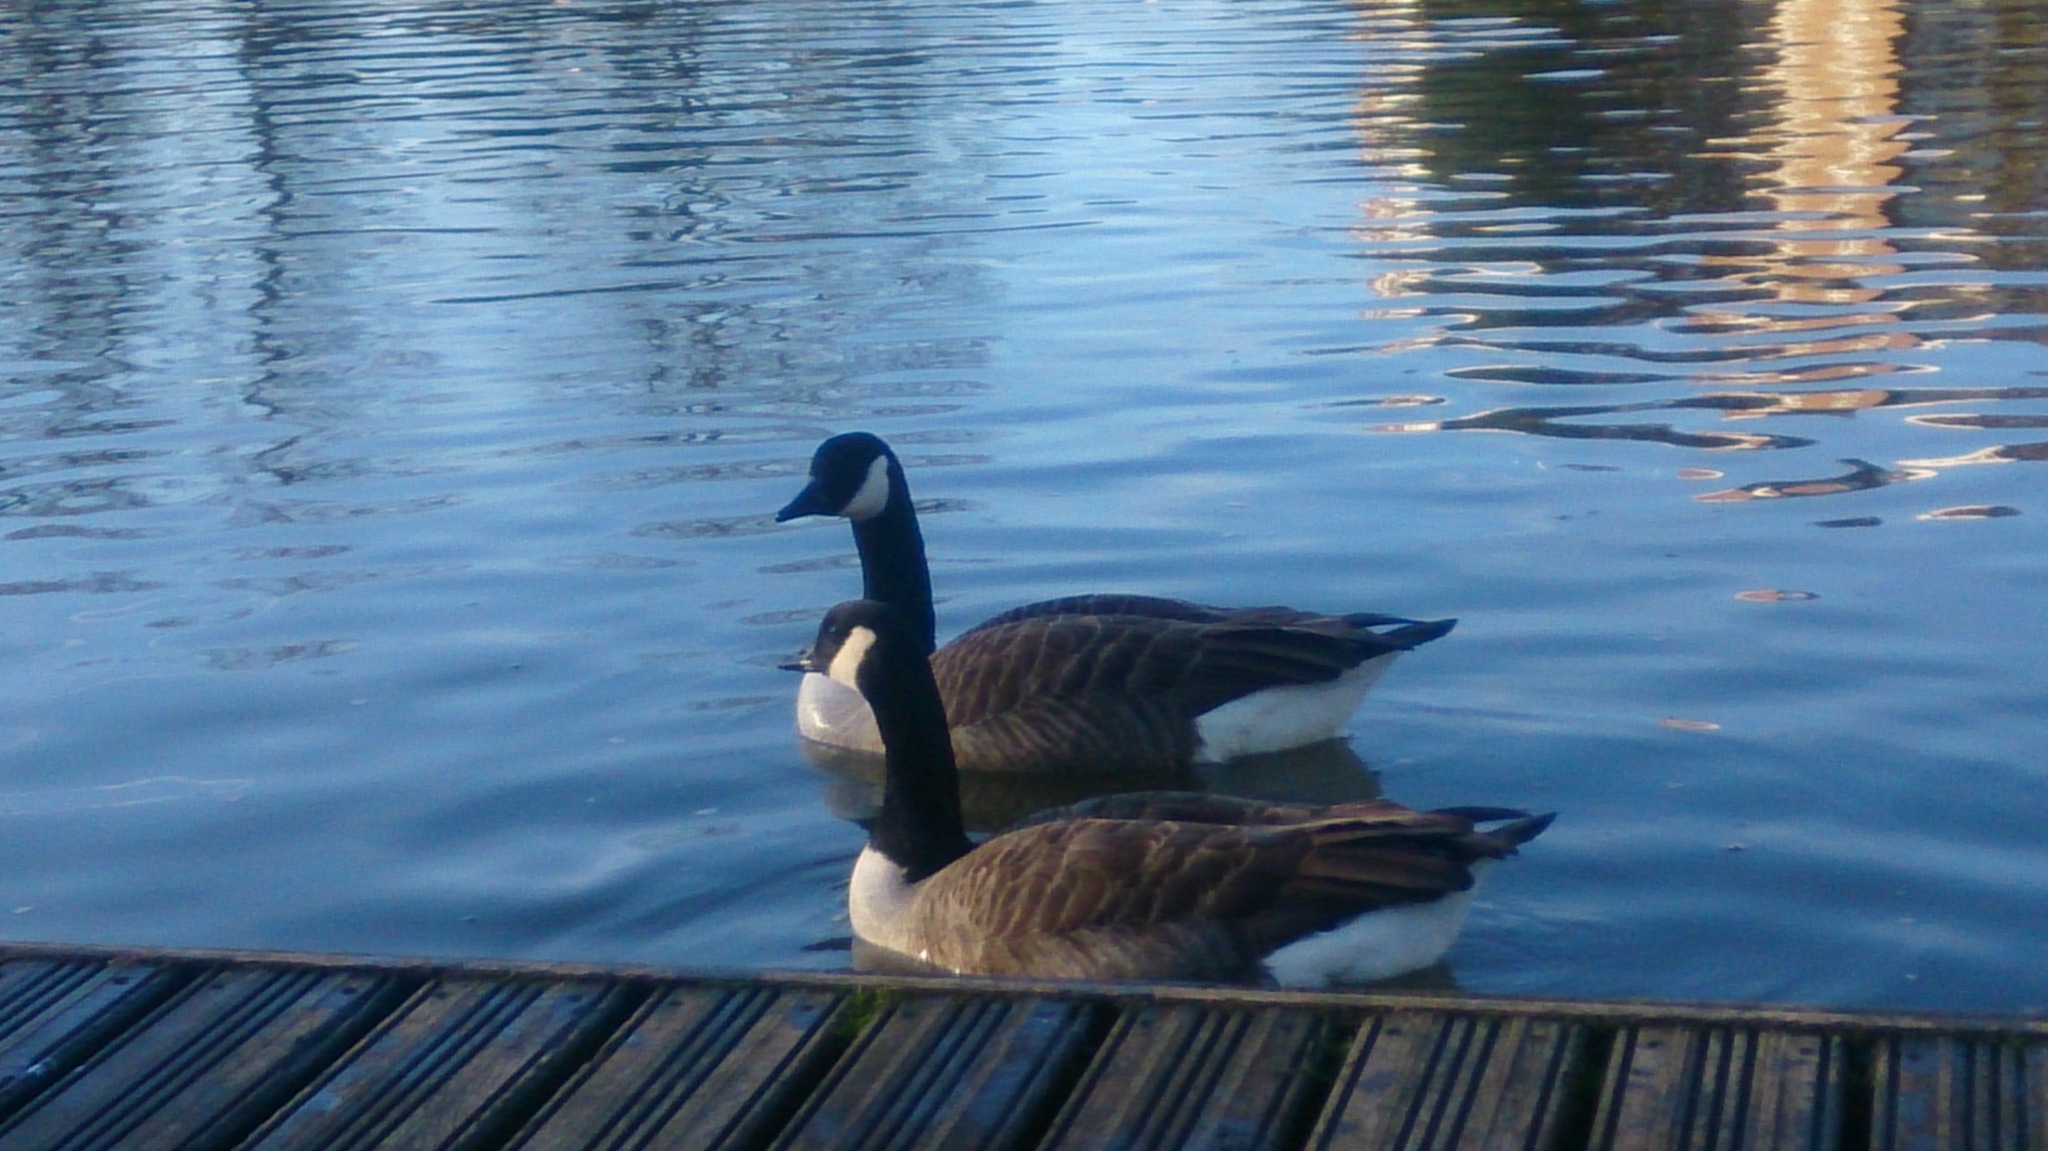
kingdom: Animalia
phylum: Chordata
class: Aves
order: Anseriformes
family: Anatidae
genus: Branta
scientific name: Branta canadensis
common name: Canada goose
